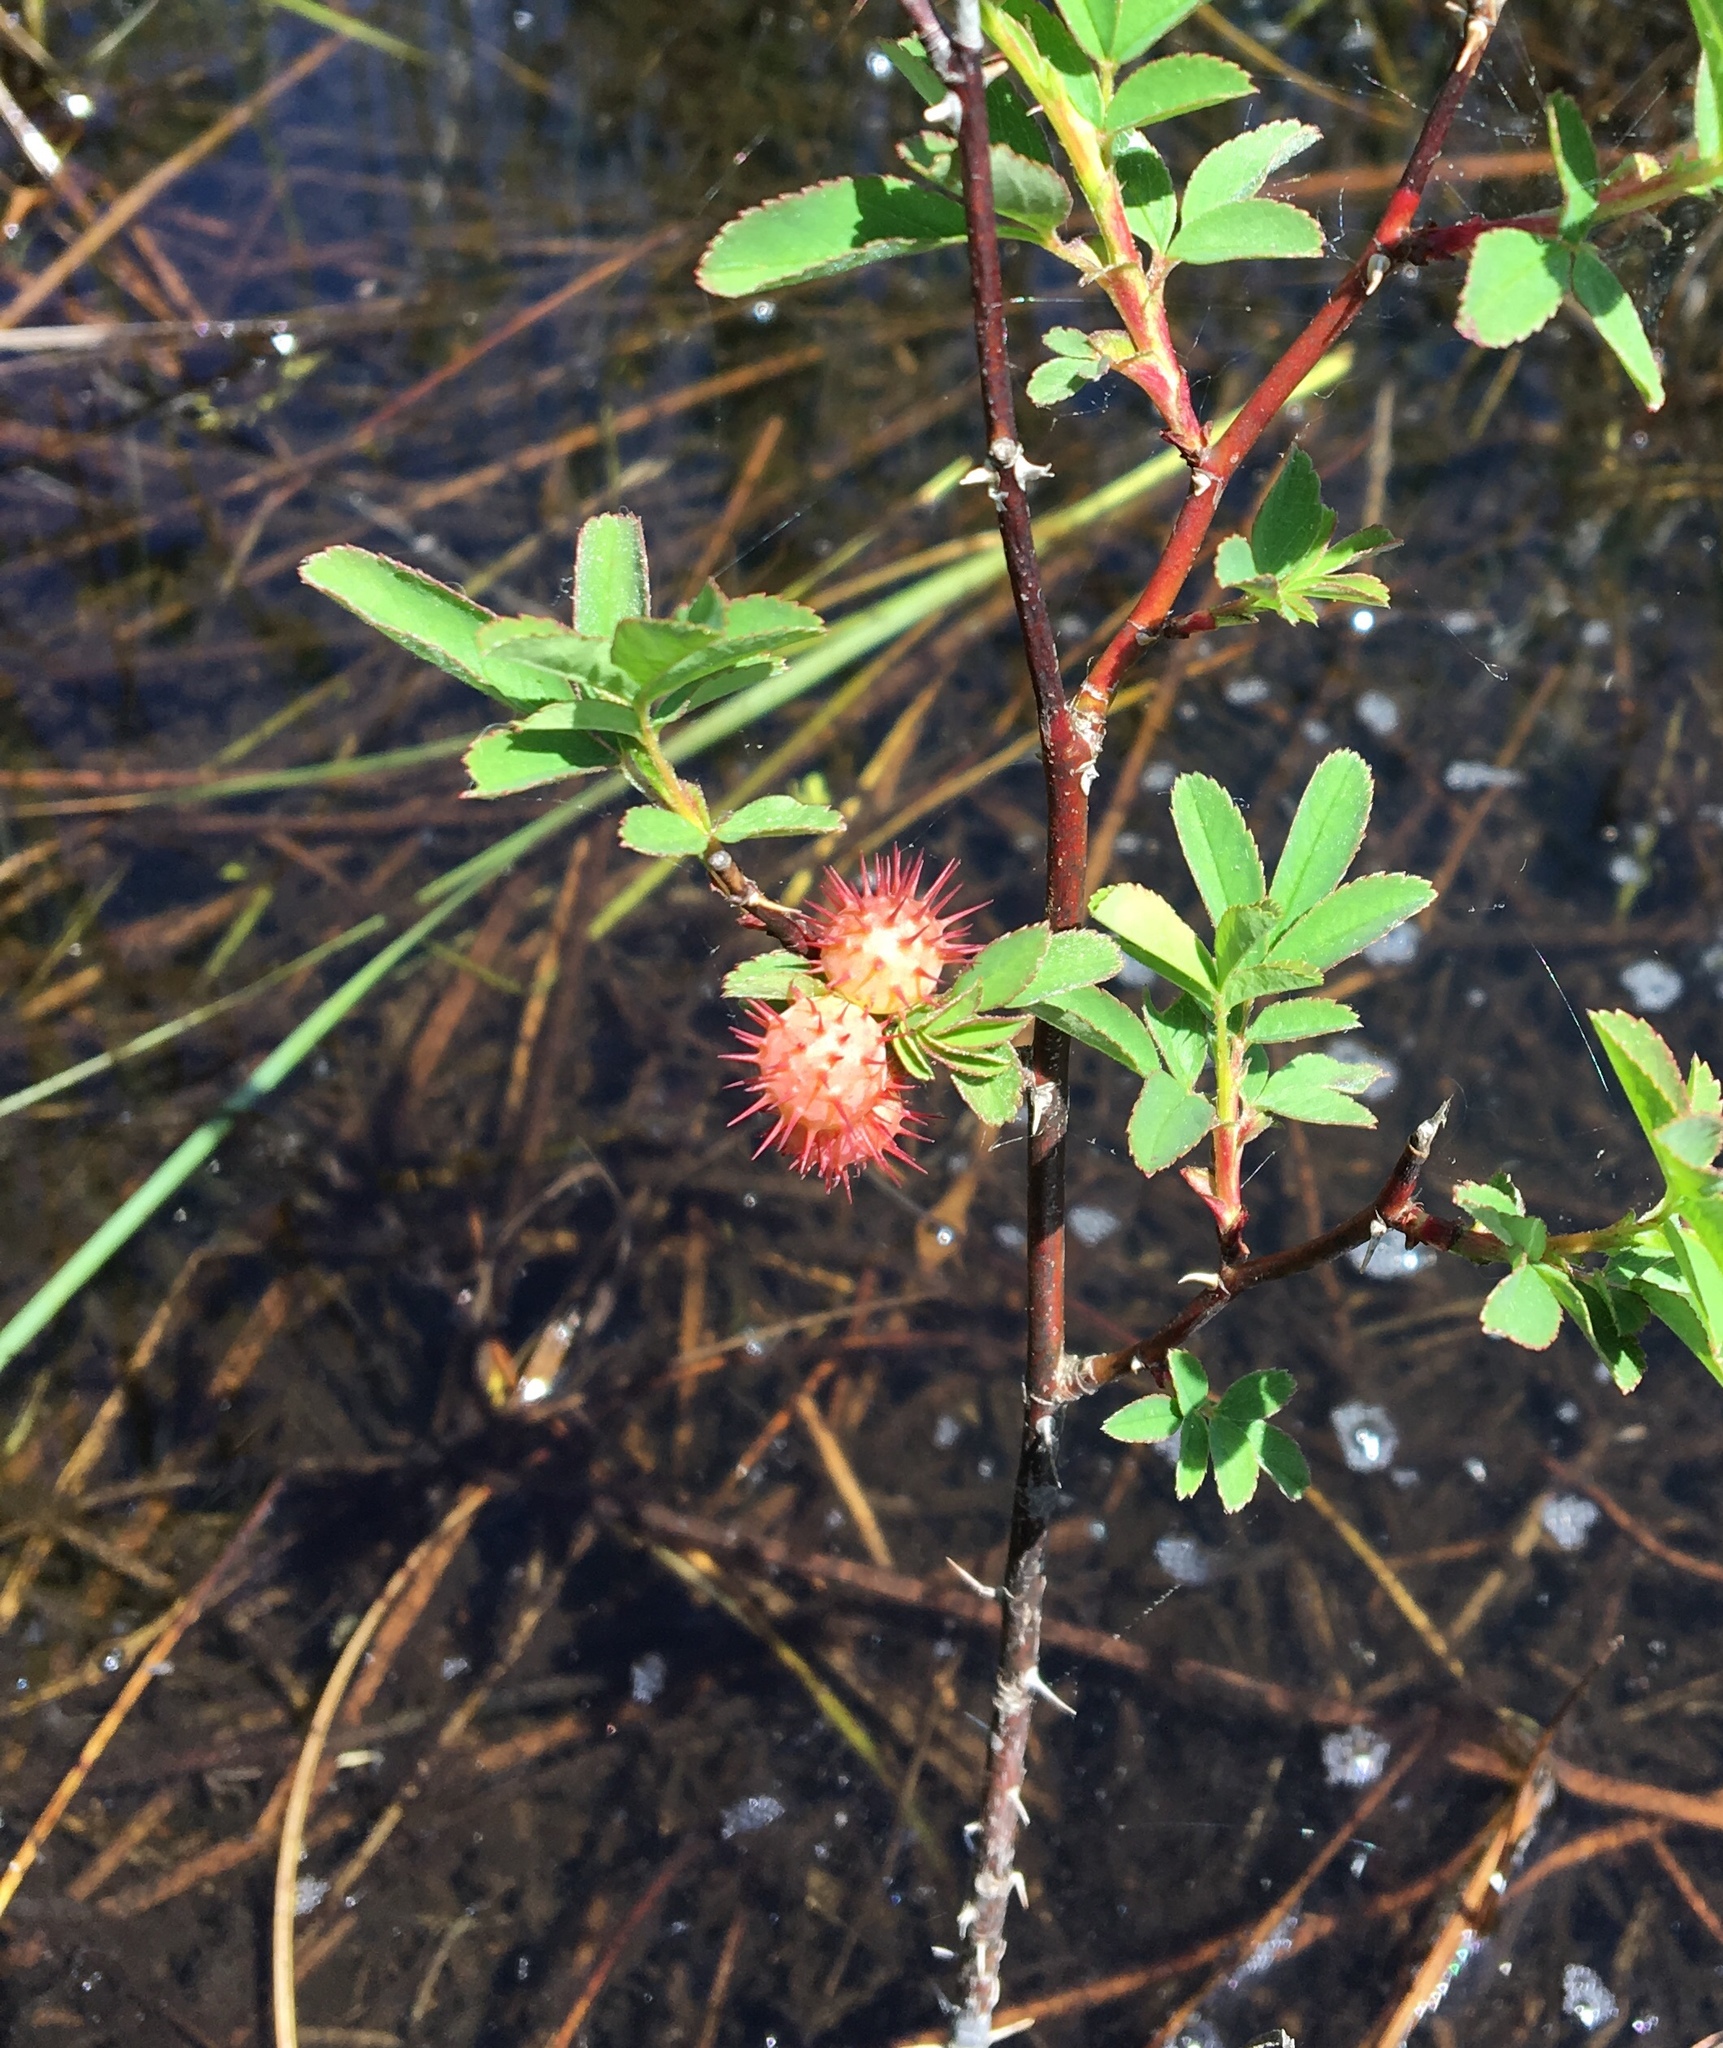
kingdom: Animalia
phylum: Arthropoda
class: Insecta
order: Hymenoptera
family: Cynipidae
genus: Diplolepis
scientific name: Diplolepis bicolor
